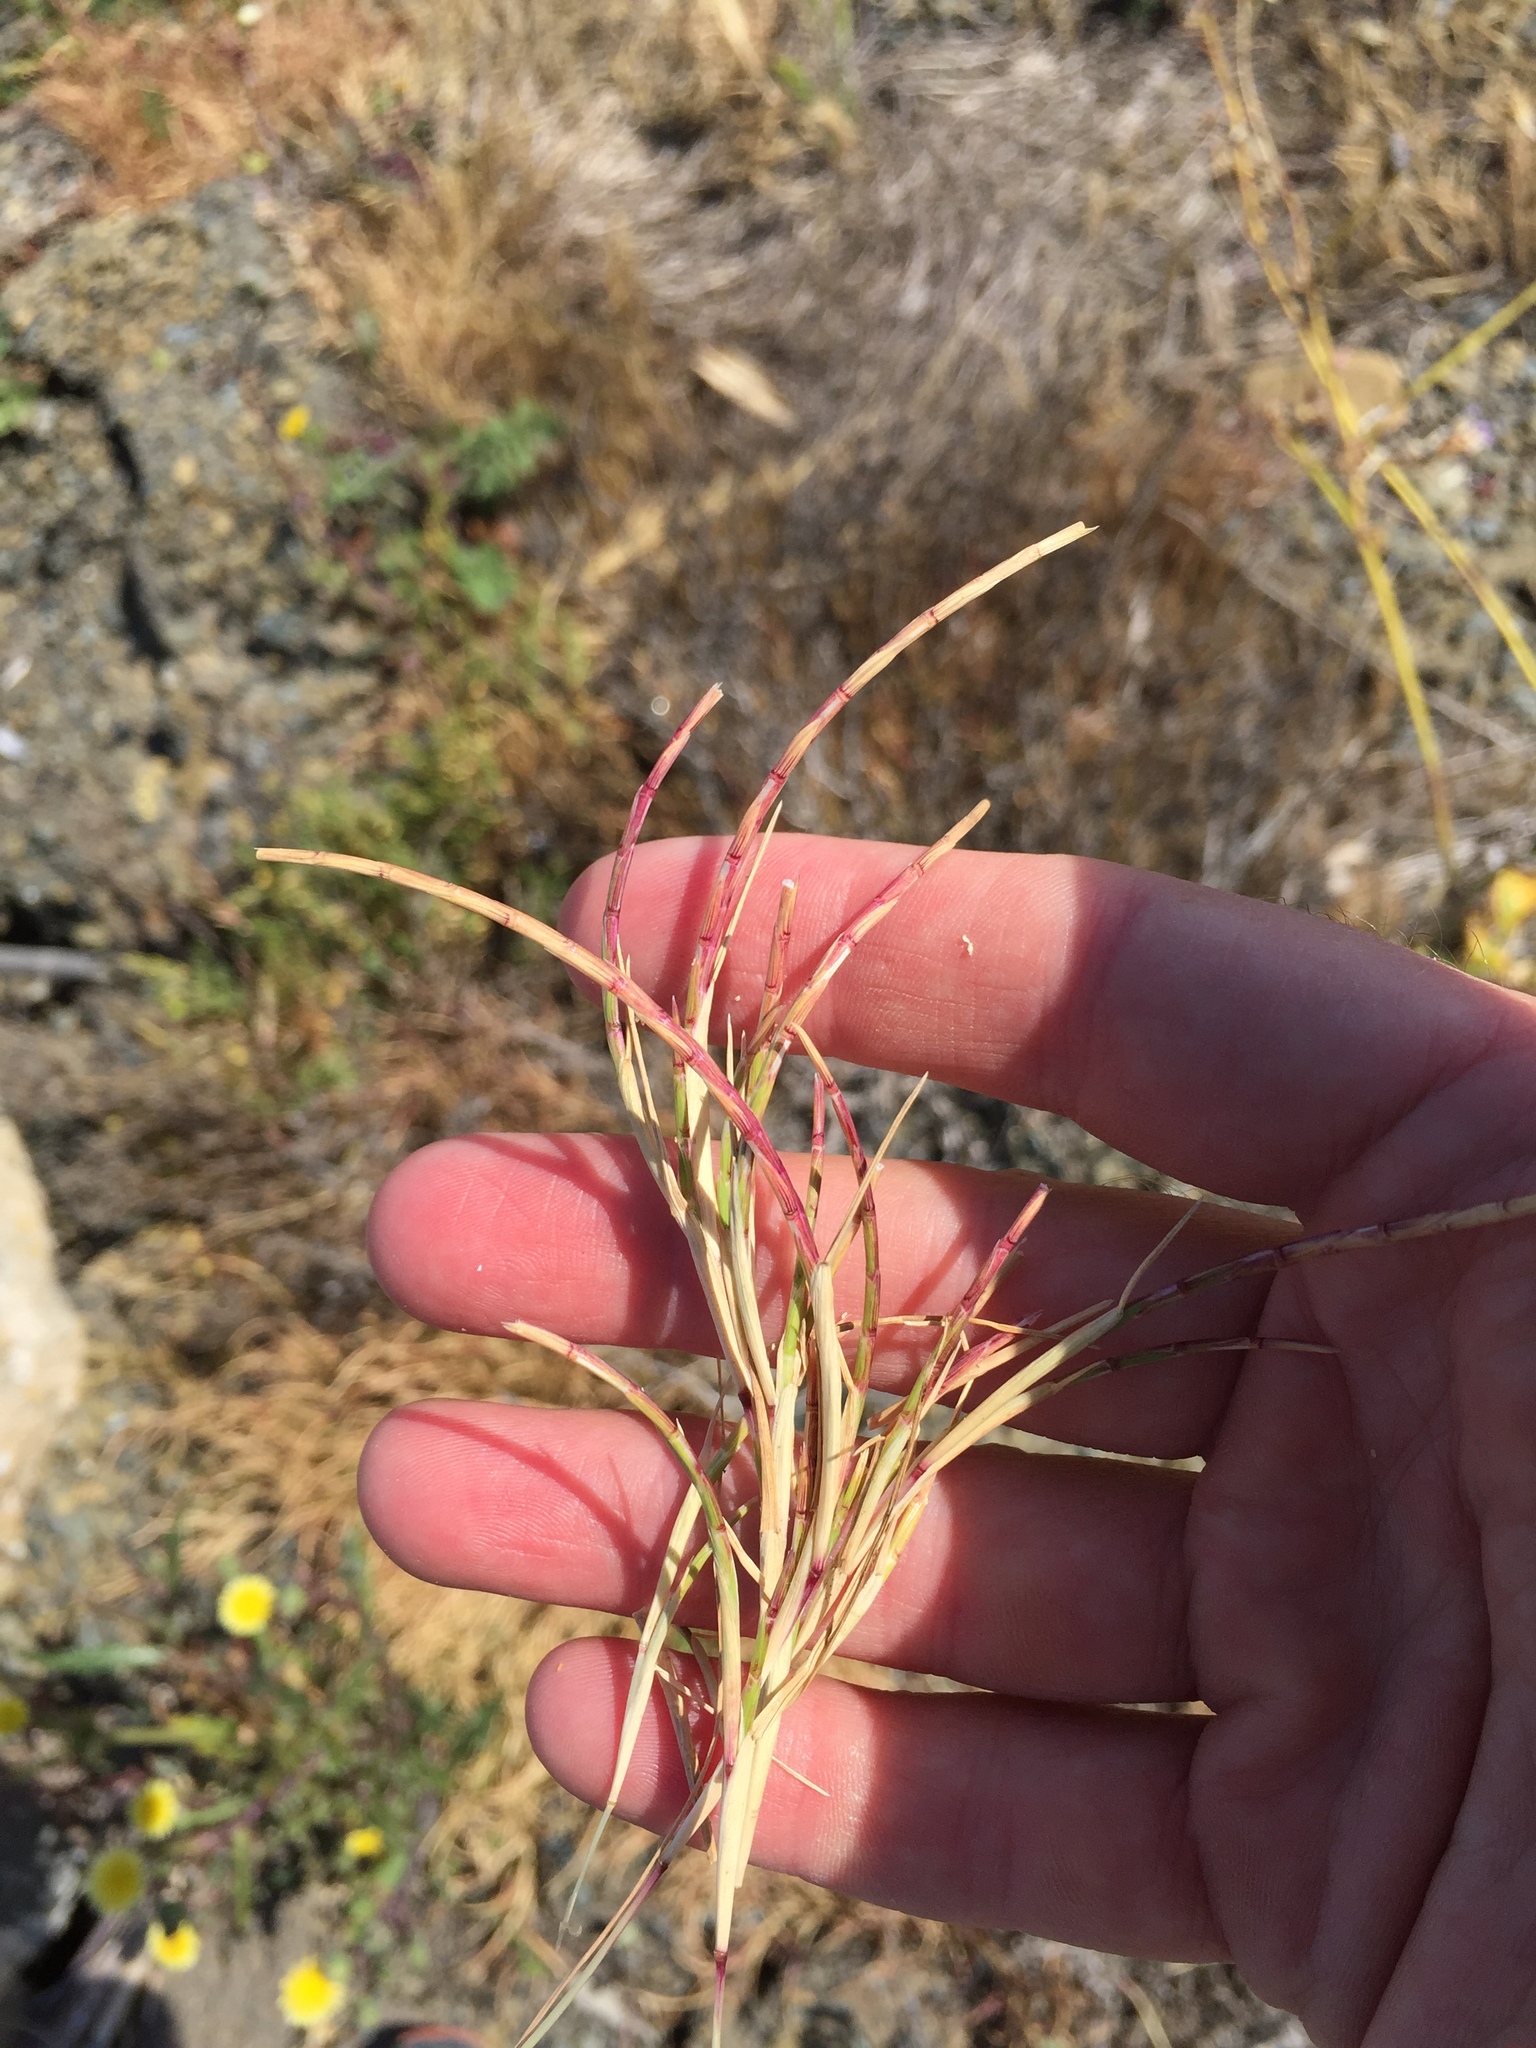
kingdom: Plantae
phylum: Tracheophyta
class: Liliopsida
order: Poales
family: Poaceae
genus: Parapholis
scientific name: Parapholis incurva
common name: Curved sicklegrass
